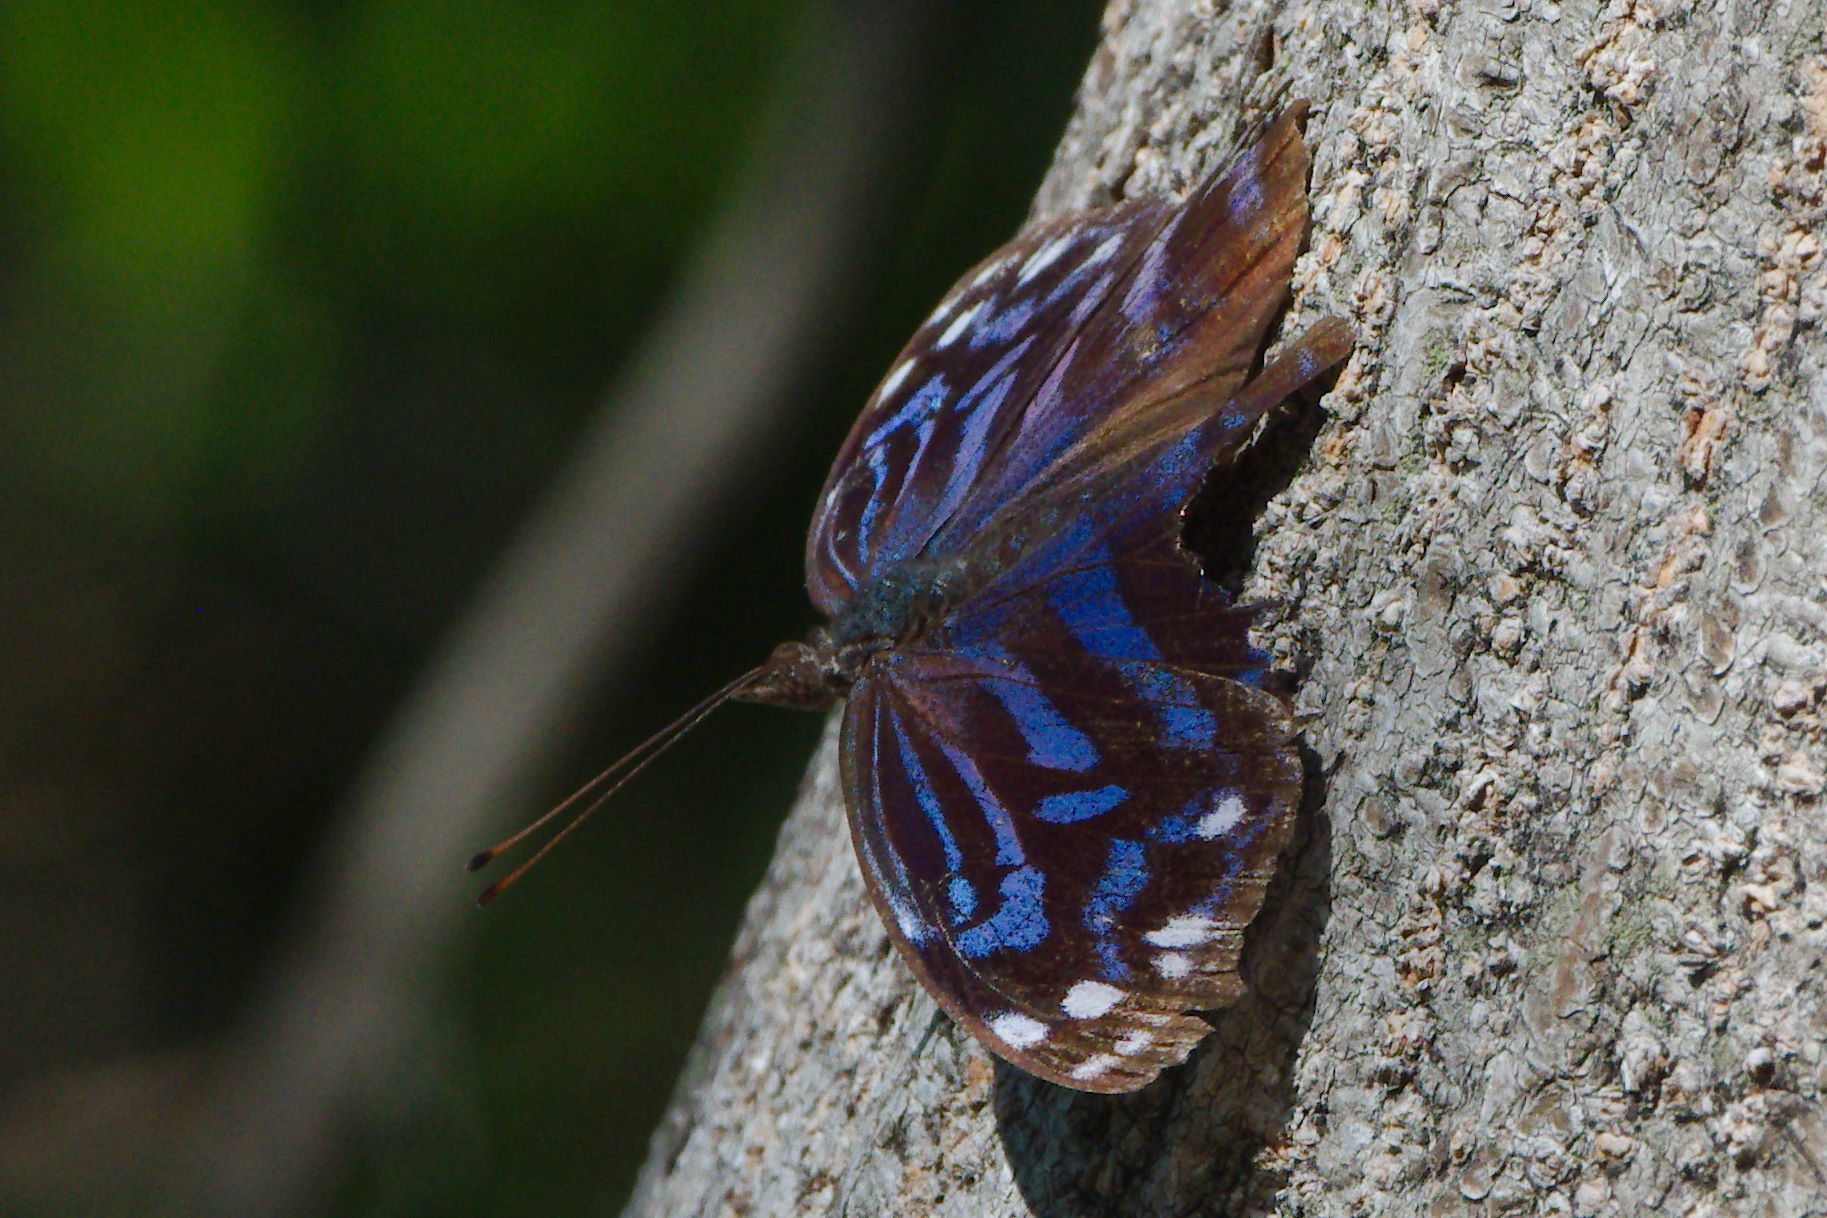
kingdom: Animalia
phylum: Arthropoda
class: Insecta
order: Lepidoptera
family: Nymphalidae
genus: Myscelia
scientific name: Myscelia ethusa
